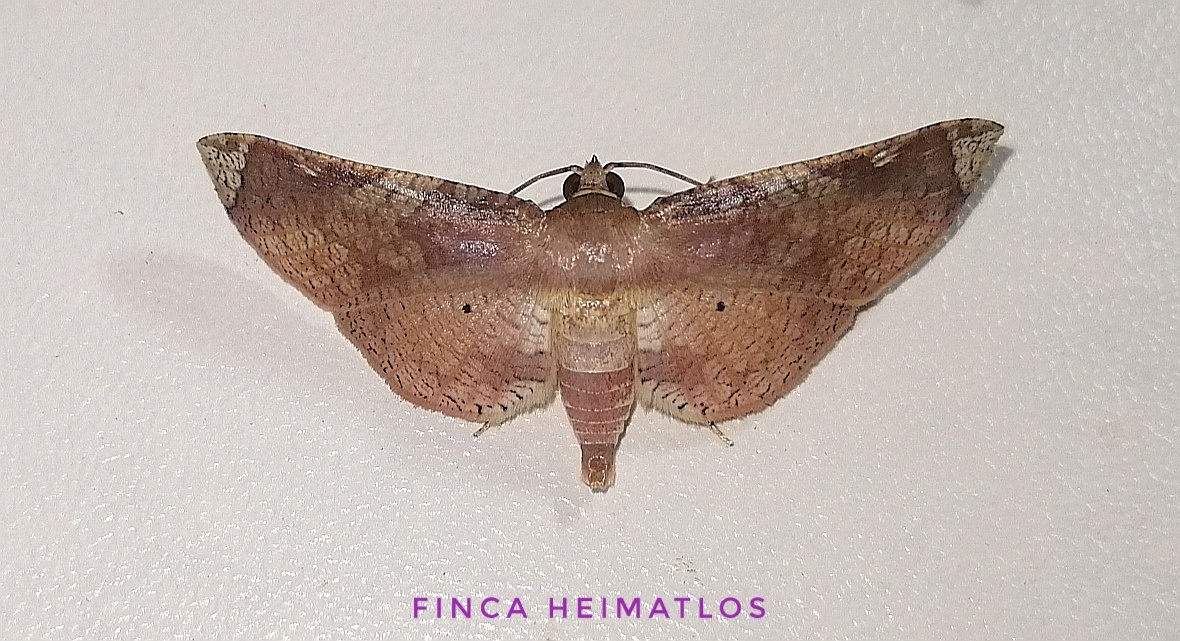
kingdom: Animalia
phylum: Arthropoda
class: Insecta
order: Lepidoptera
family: Thyrididae
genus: Microsca
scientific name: Microsca hedilalis
